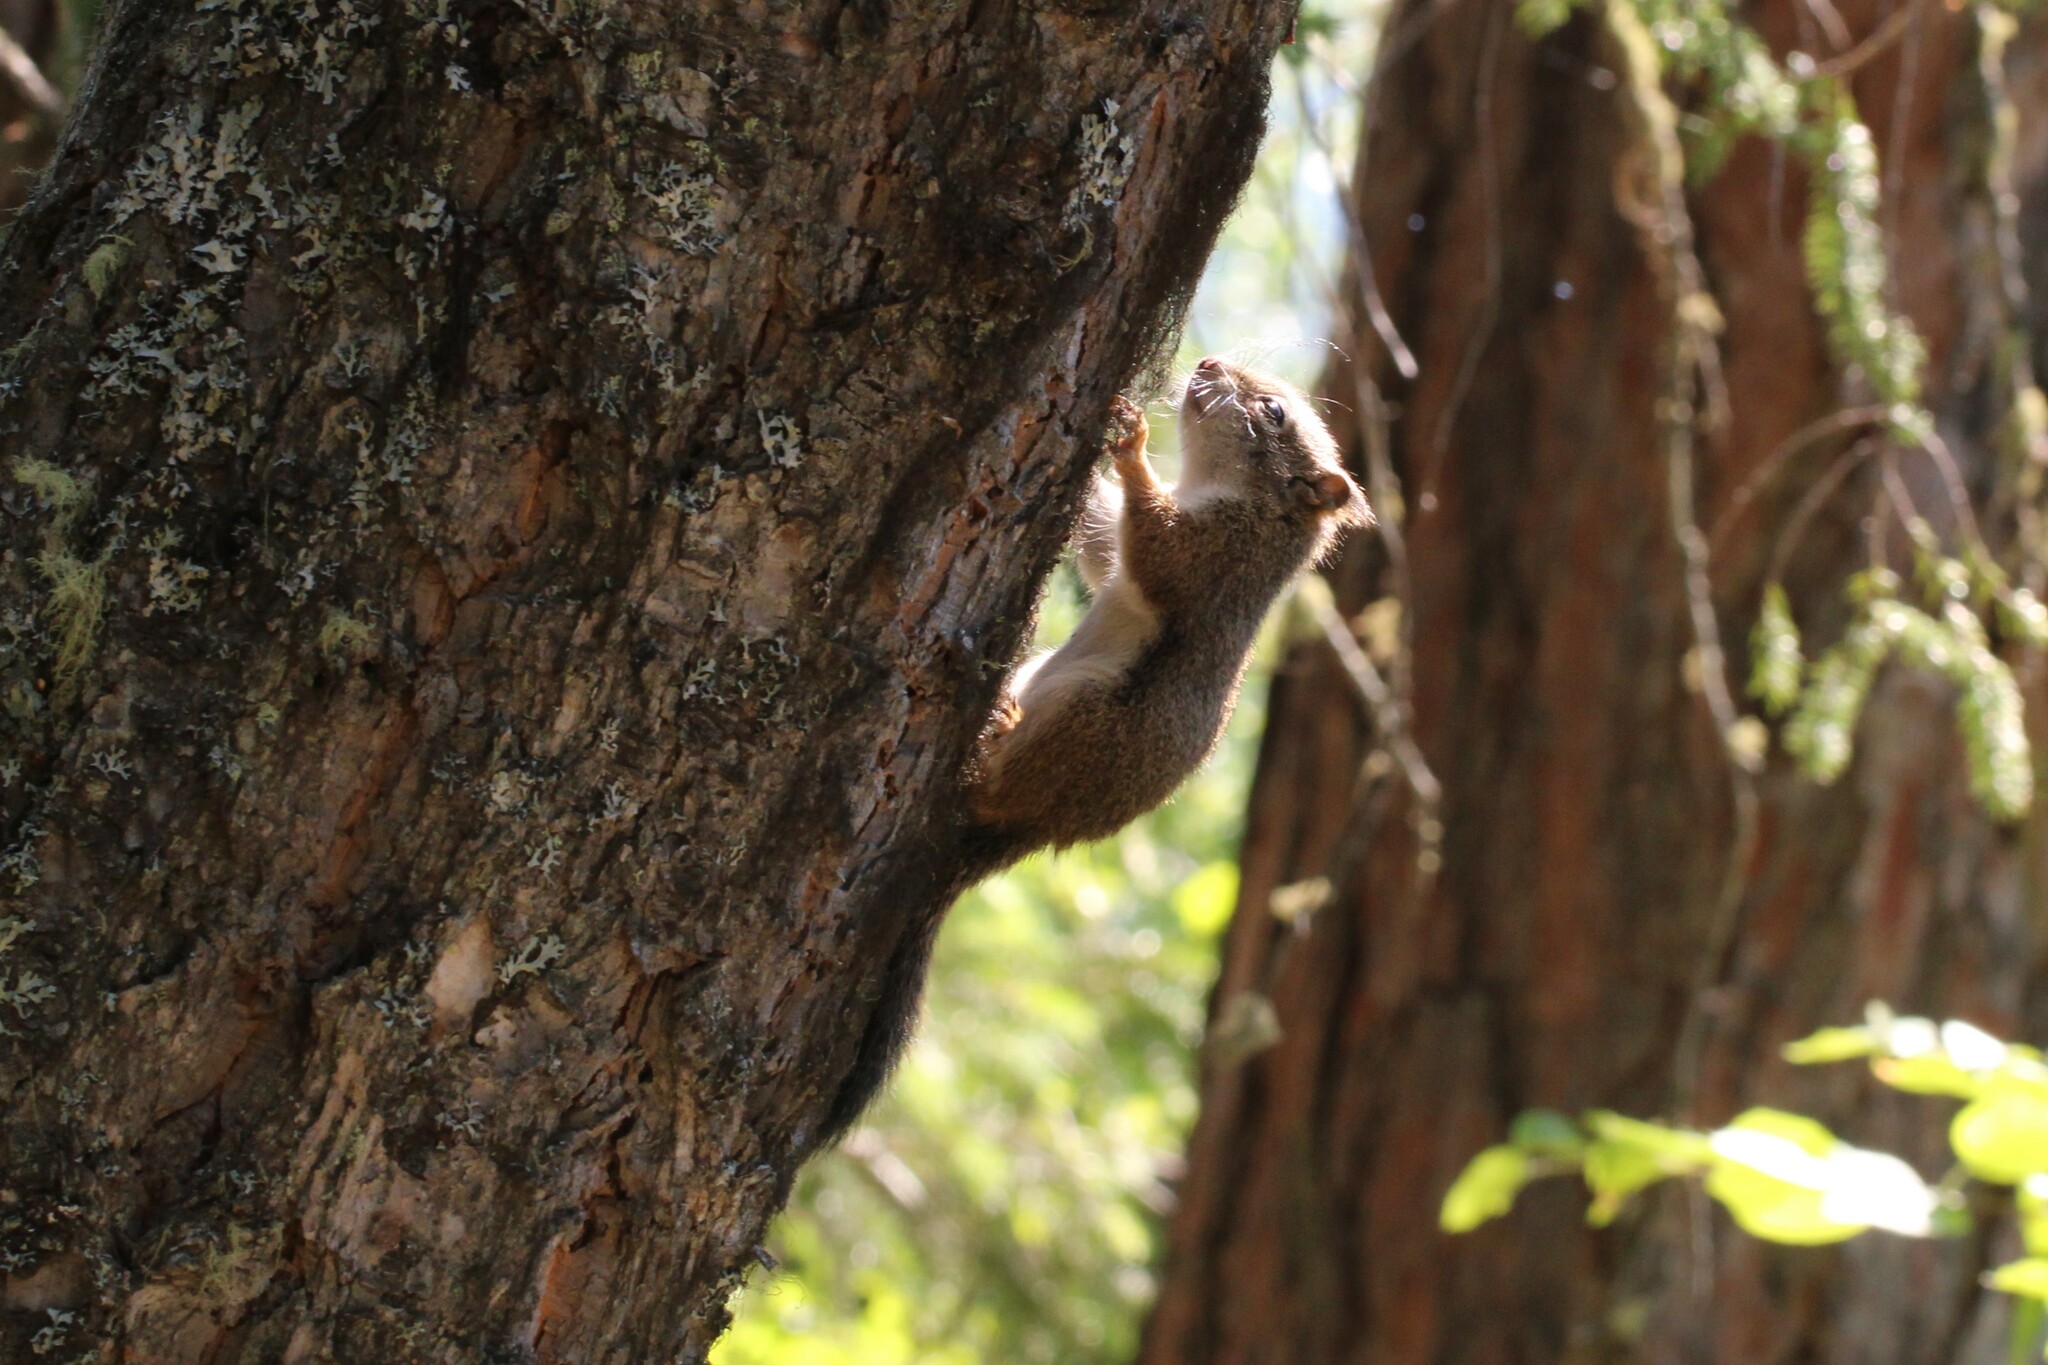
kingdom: Animalia
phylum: Chordata
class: Mammalia
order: Rodentia
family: Sciuridae
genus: Tamiasciurus
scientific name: Tamiasciurus hudsonicus
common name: Red squirrel
